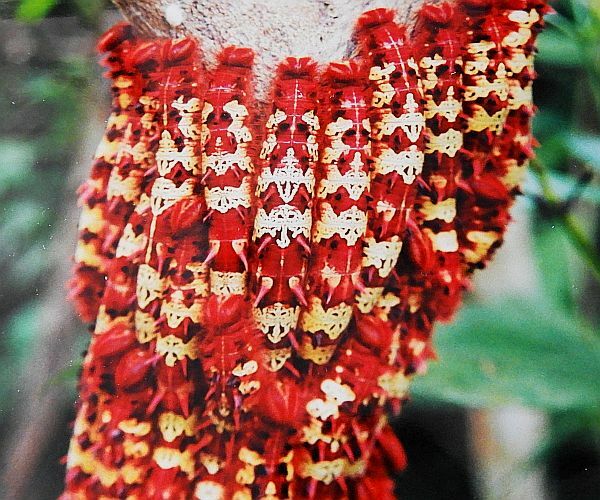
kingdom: Animalia
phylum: Arthropoda
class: Insecta
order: Lepidoptera
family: Nymphalidae
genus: Morpho
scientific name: Morpho telemachus
